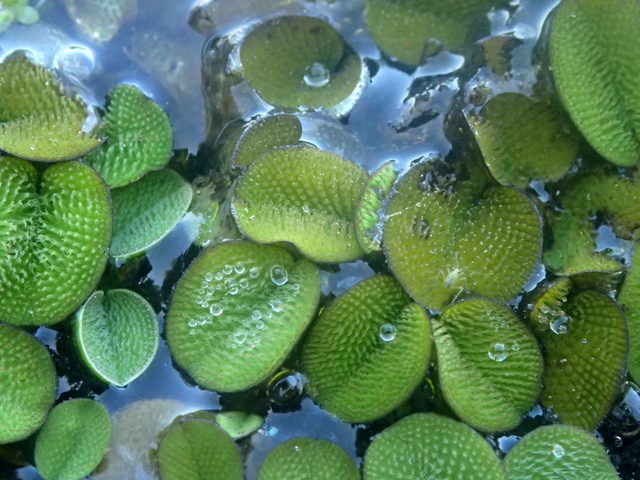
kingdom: Plantae
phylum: Tracheophyta
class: Polypodiopsida
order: Salviniales
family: Salviniaceae
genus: Salvinia
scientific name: Salvinia minima
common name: Water spangles
